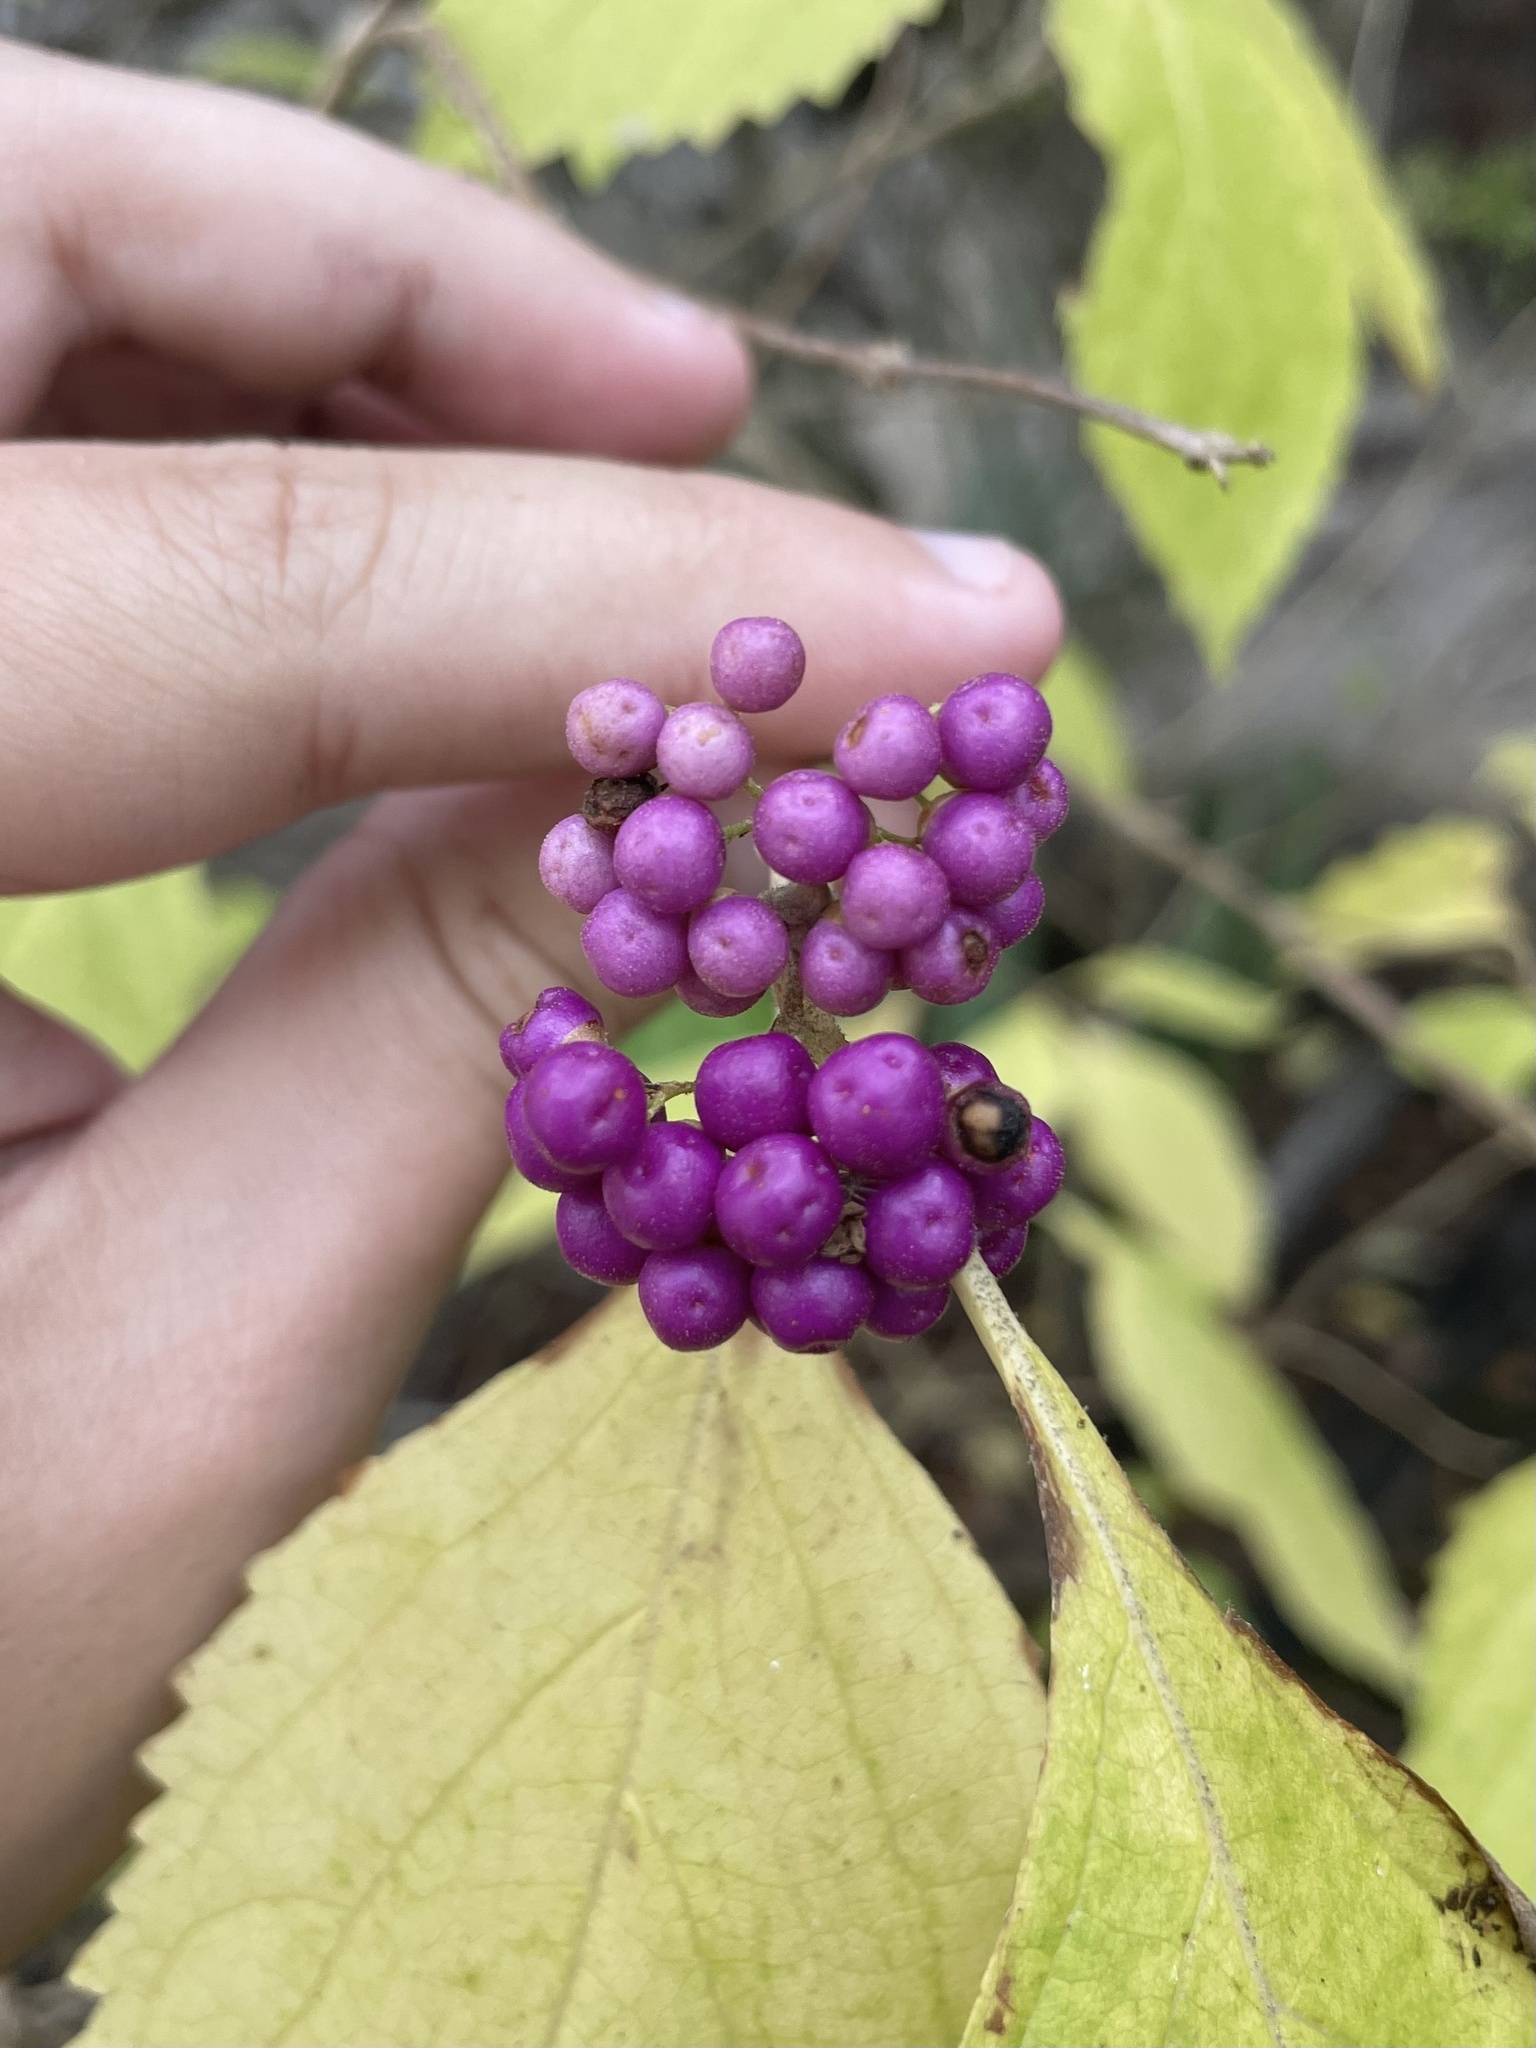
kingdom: Plantae
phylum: Tracheophyta
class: Magnoliopsida
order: Lamiales
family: Lamiaceae
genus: Callicarpa
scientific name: Callicarpa americana
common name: American beautyberry
